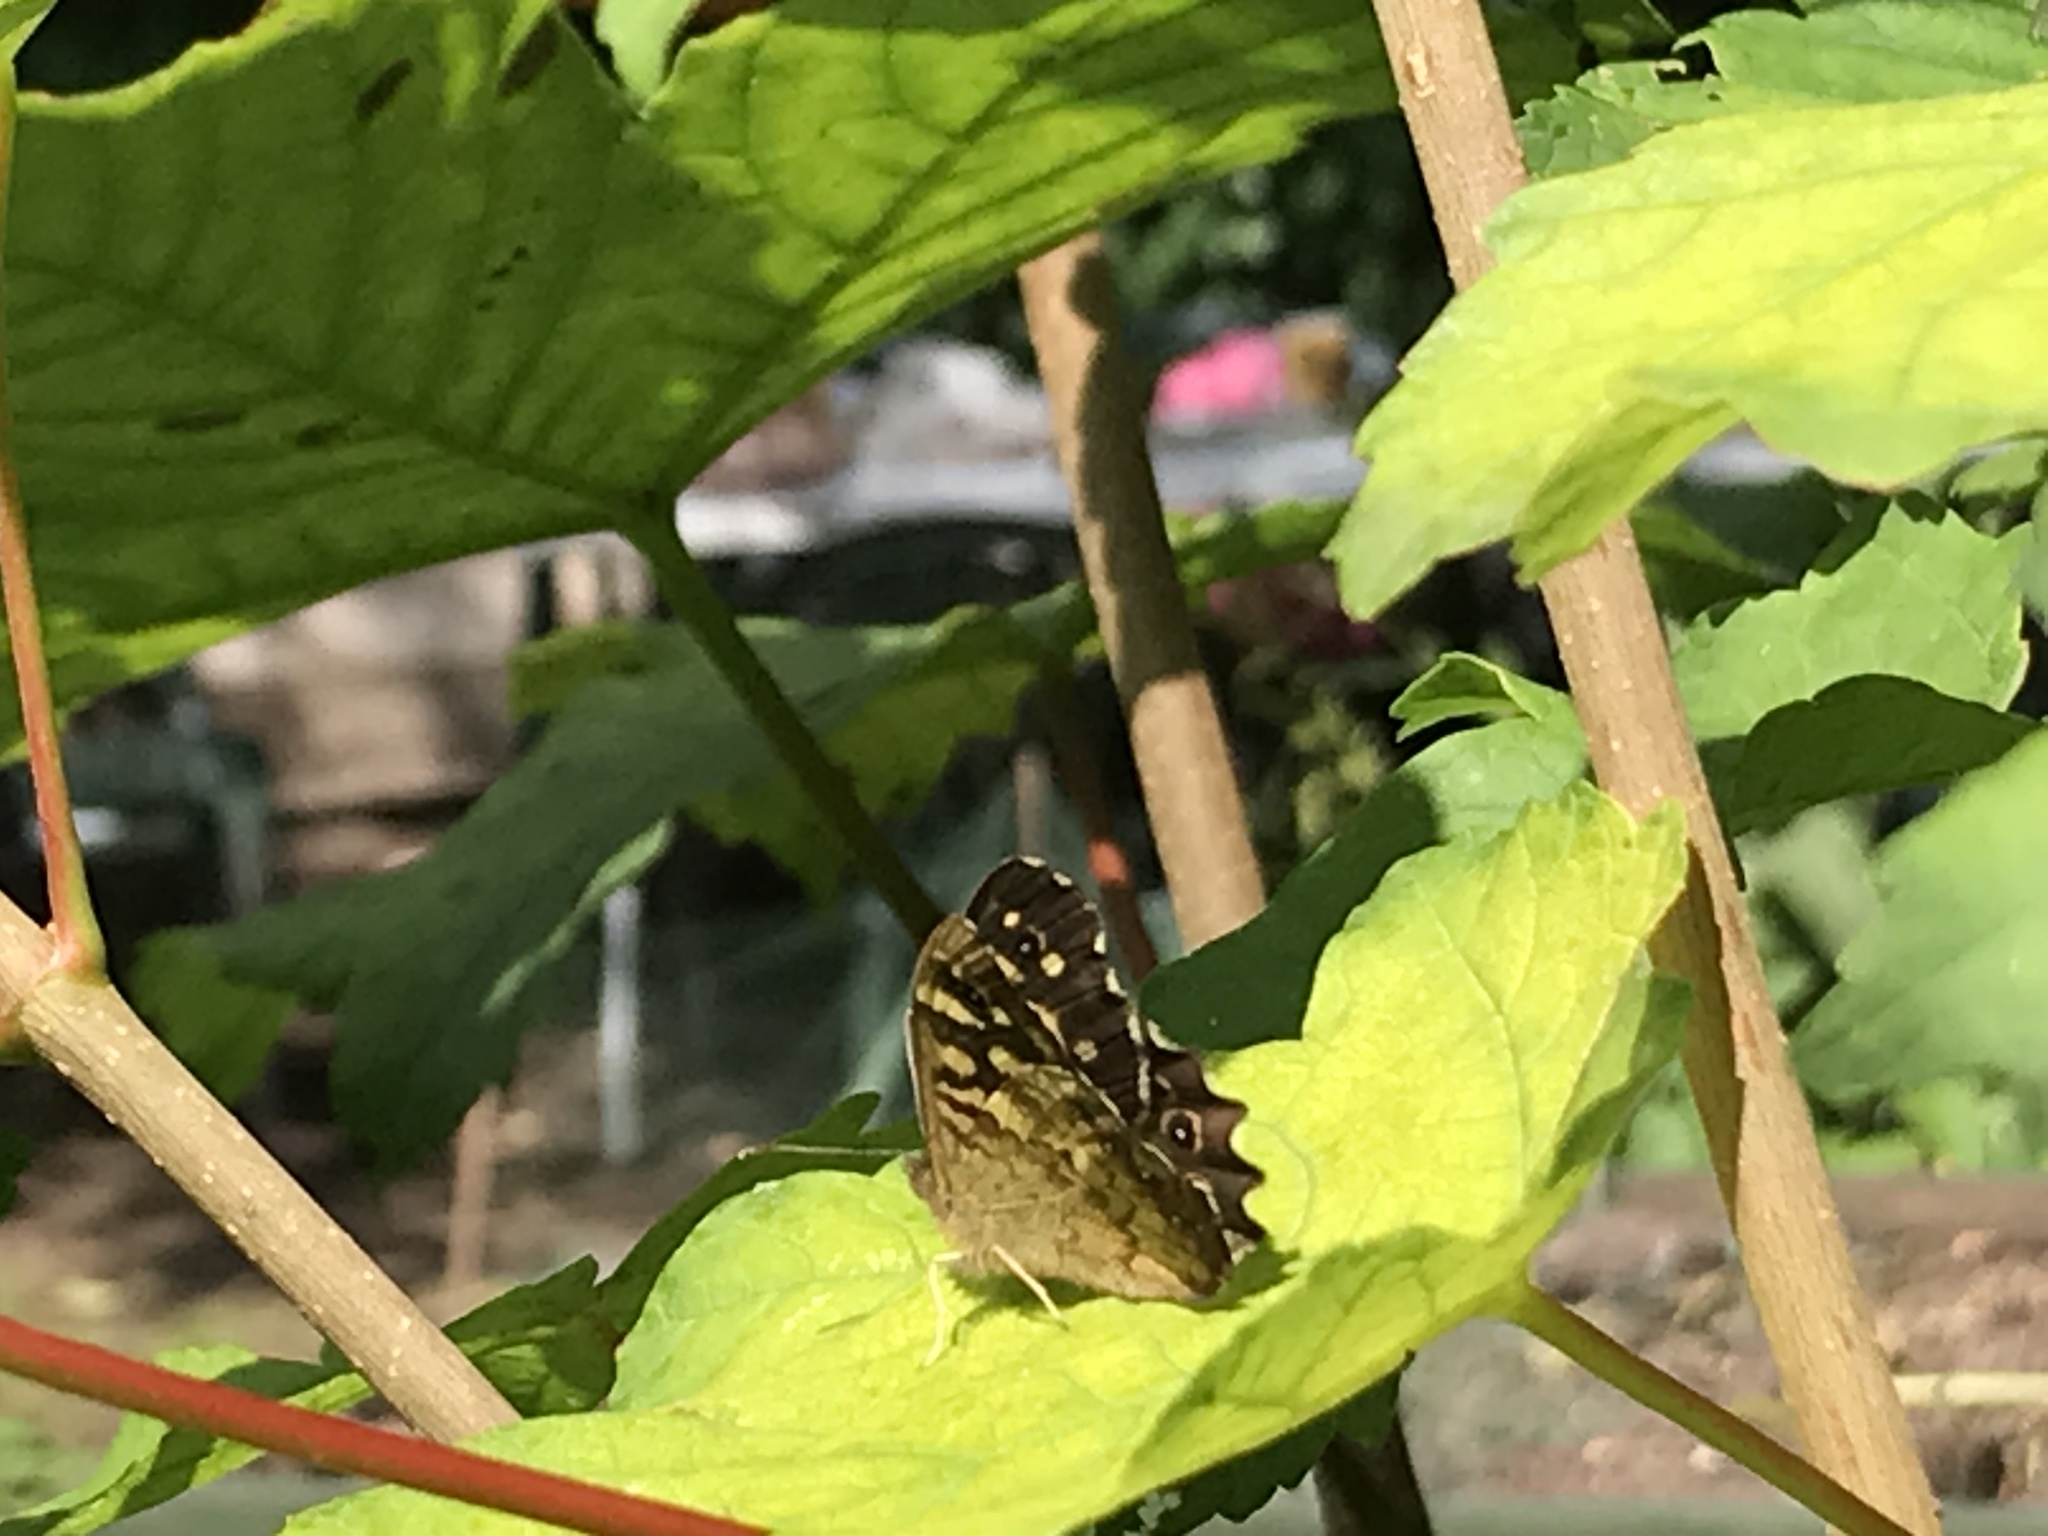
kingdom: Animalia
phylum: Arthropoda
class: Insecta
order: Lepidoptera
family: Nymphalidae
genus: Pararge
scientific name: Pararge aegeria
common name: Speckled wood
